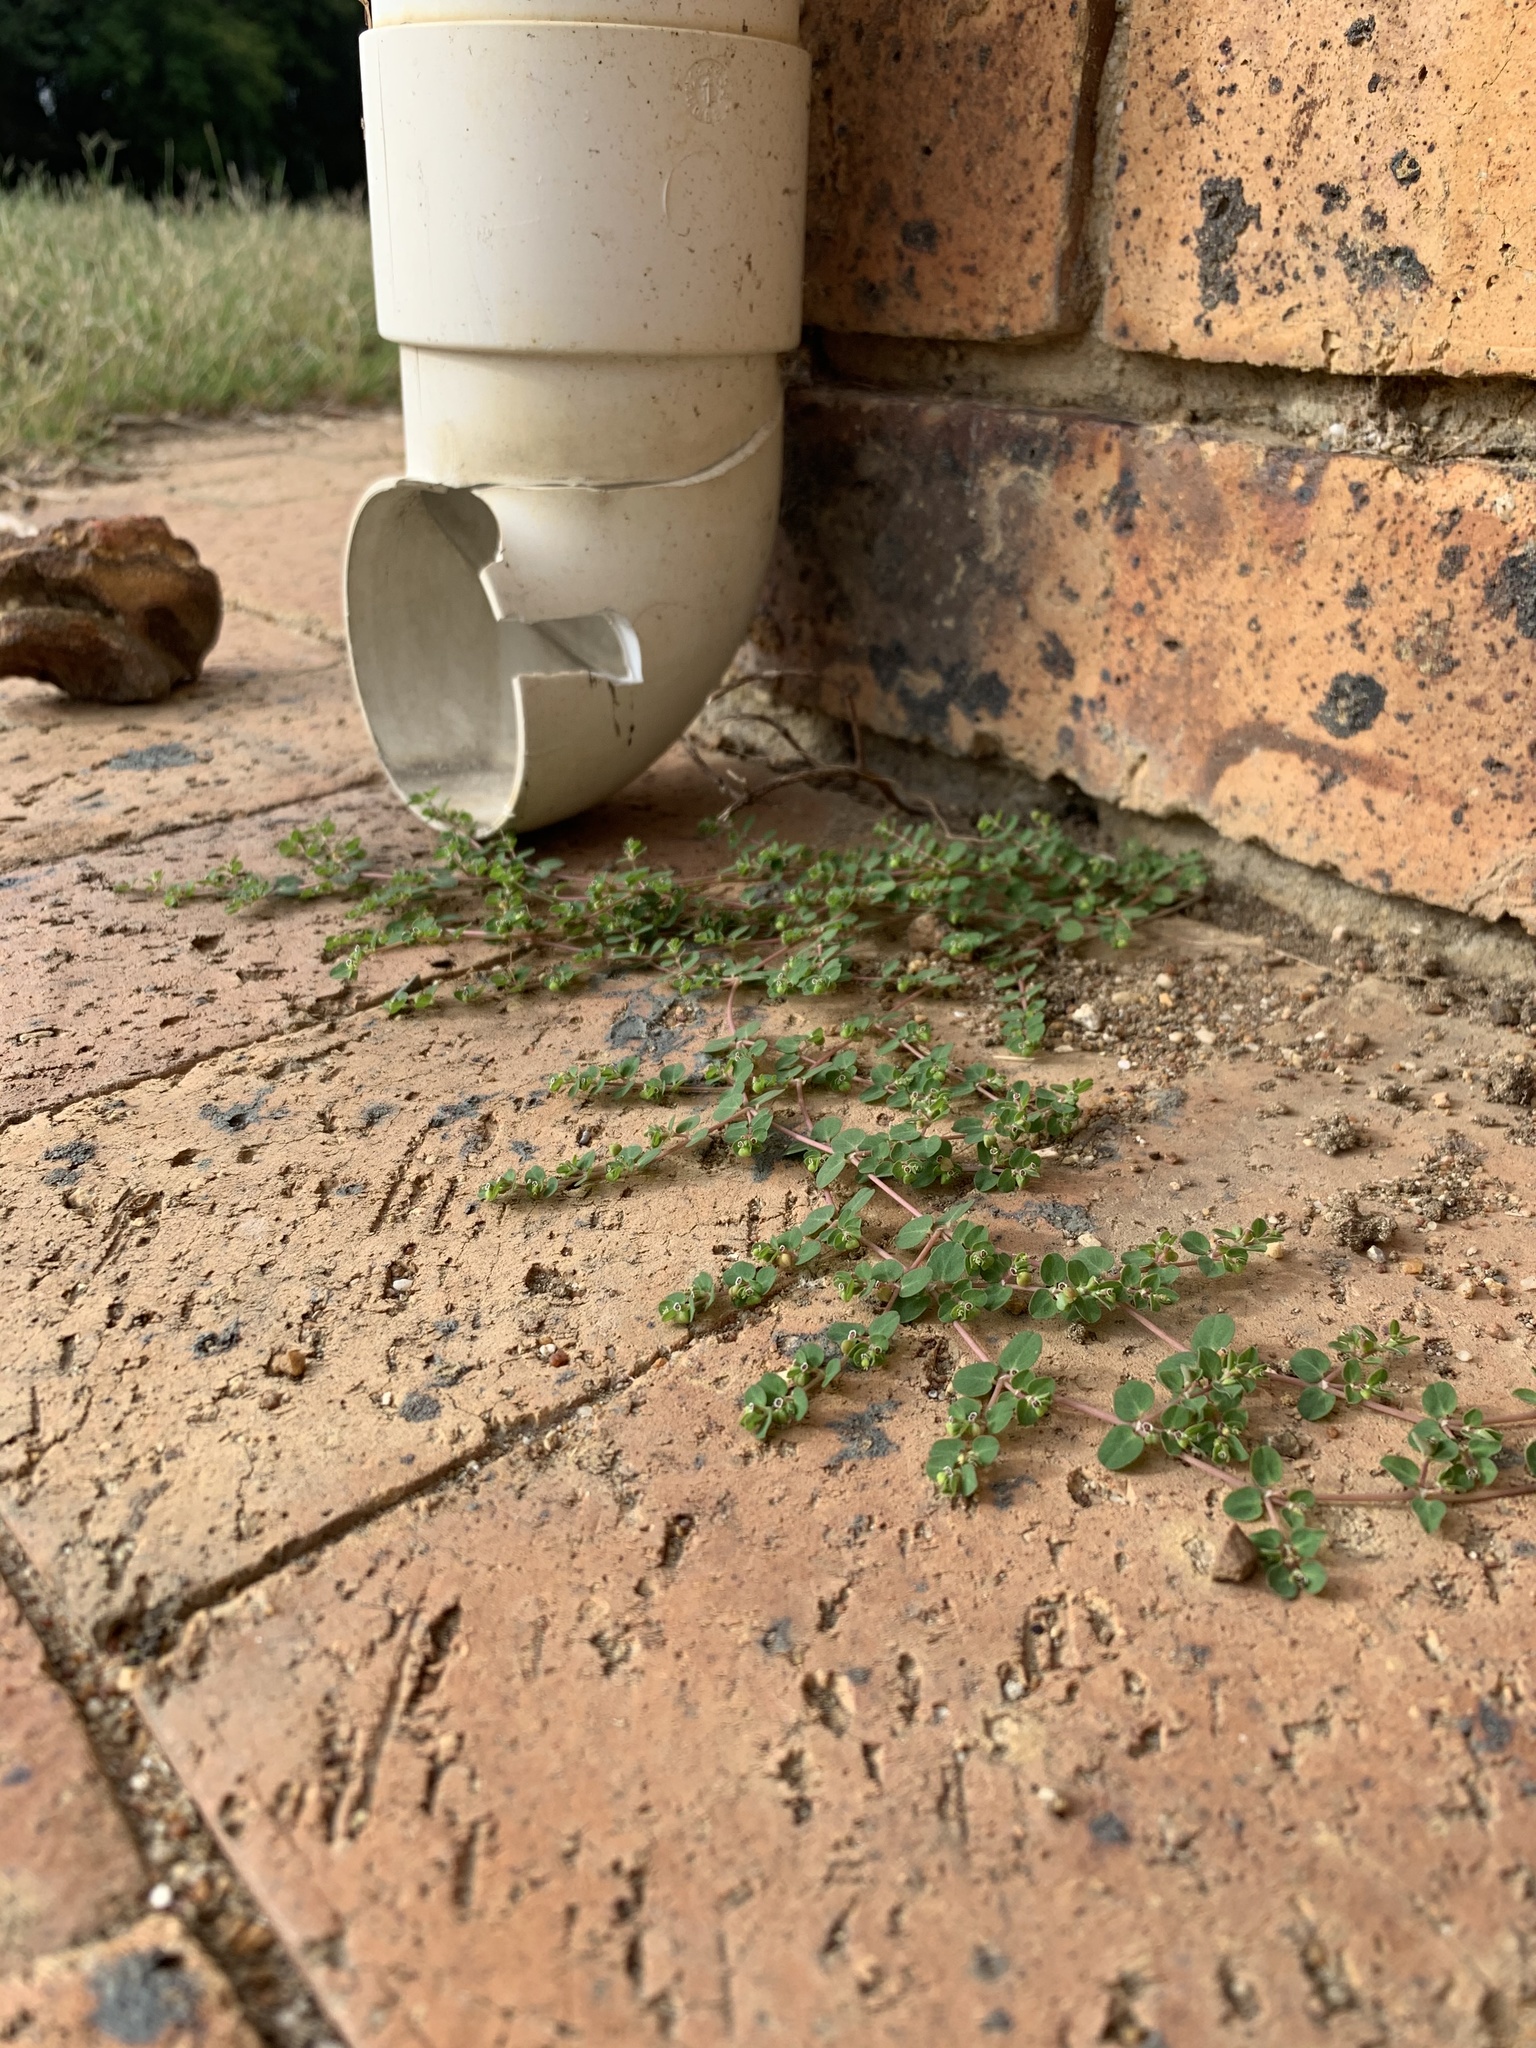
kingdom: Plantae
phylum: Tracheophyta
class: Magnoliopsida
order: Malpighiales
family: Euphorbiaceae
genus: Euphorbia
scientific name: Euphorbia serpens
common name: Matted sandmat
